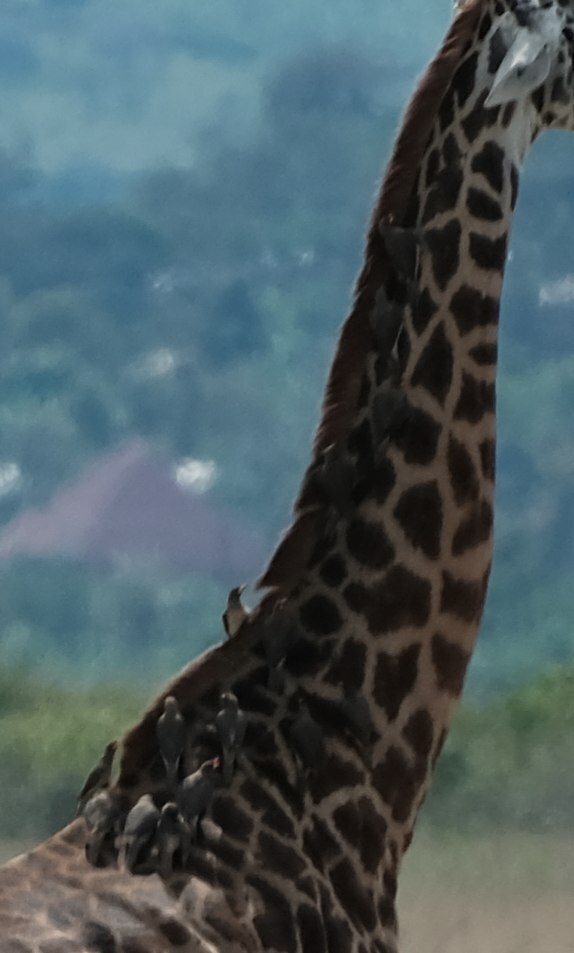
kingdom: Animalia
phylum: Chordata
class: Aves
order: Passeriformes
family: Buphagidae
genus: Buphagus
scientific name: Buphagus africanus
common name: Yellow-billed oxpecker
